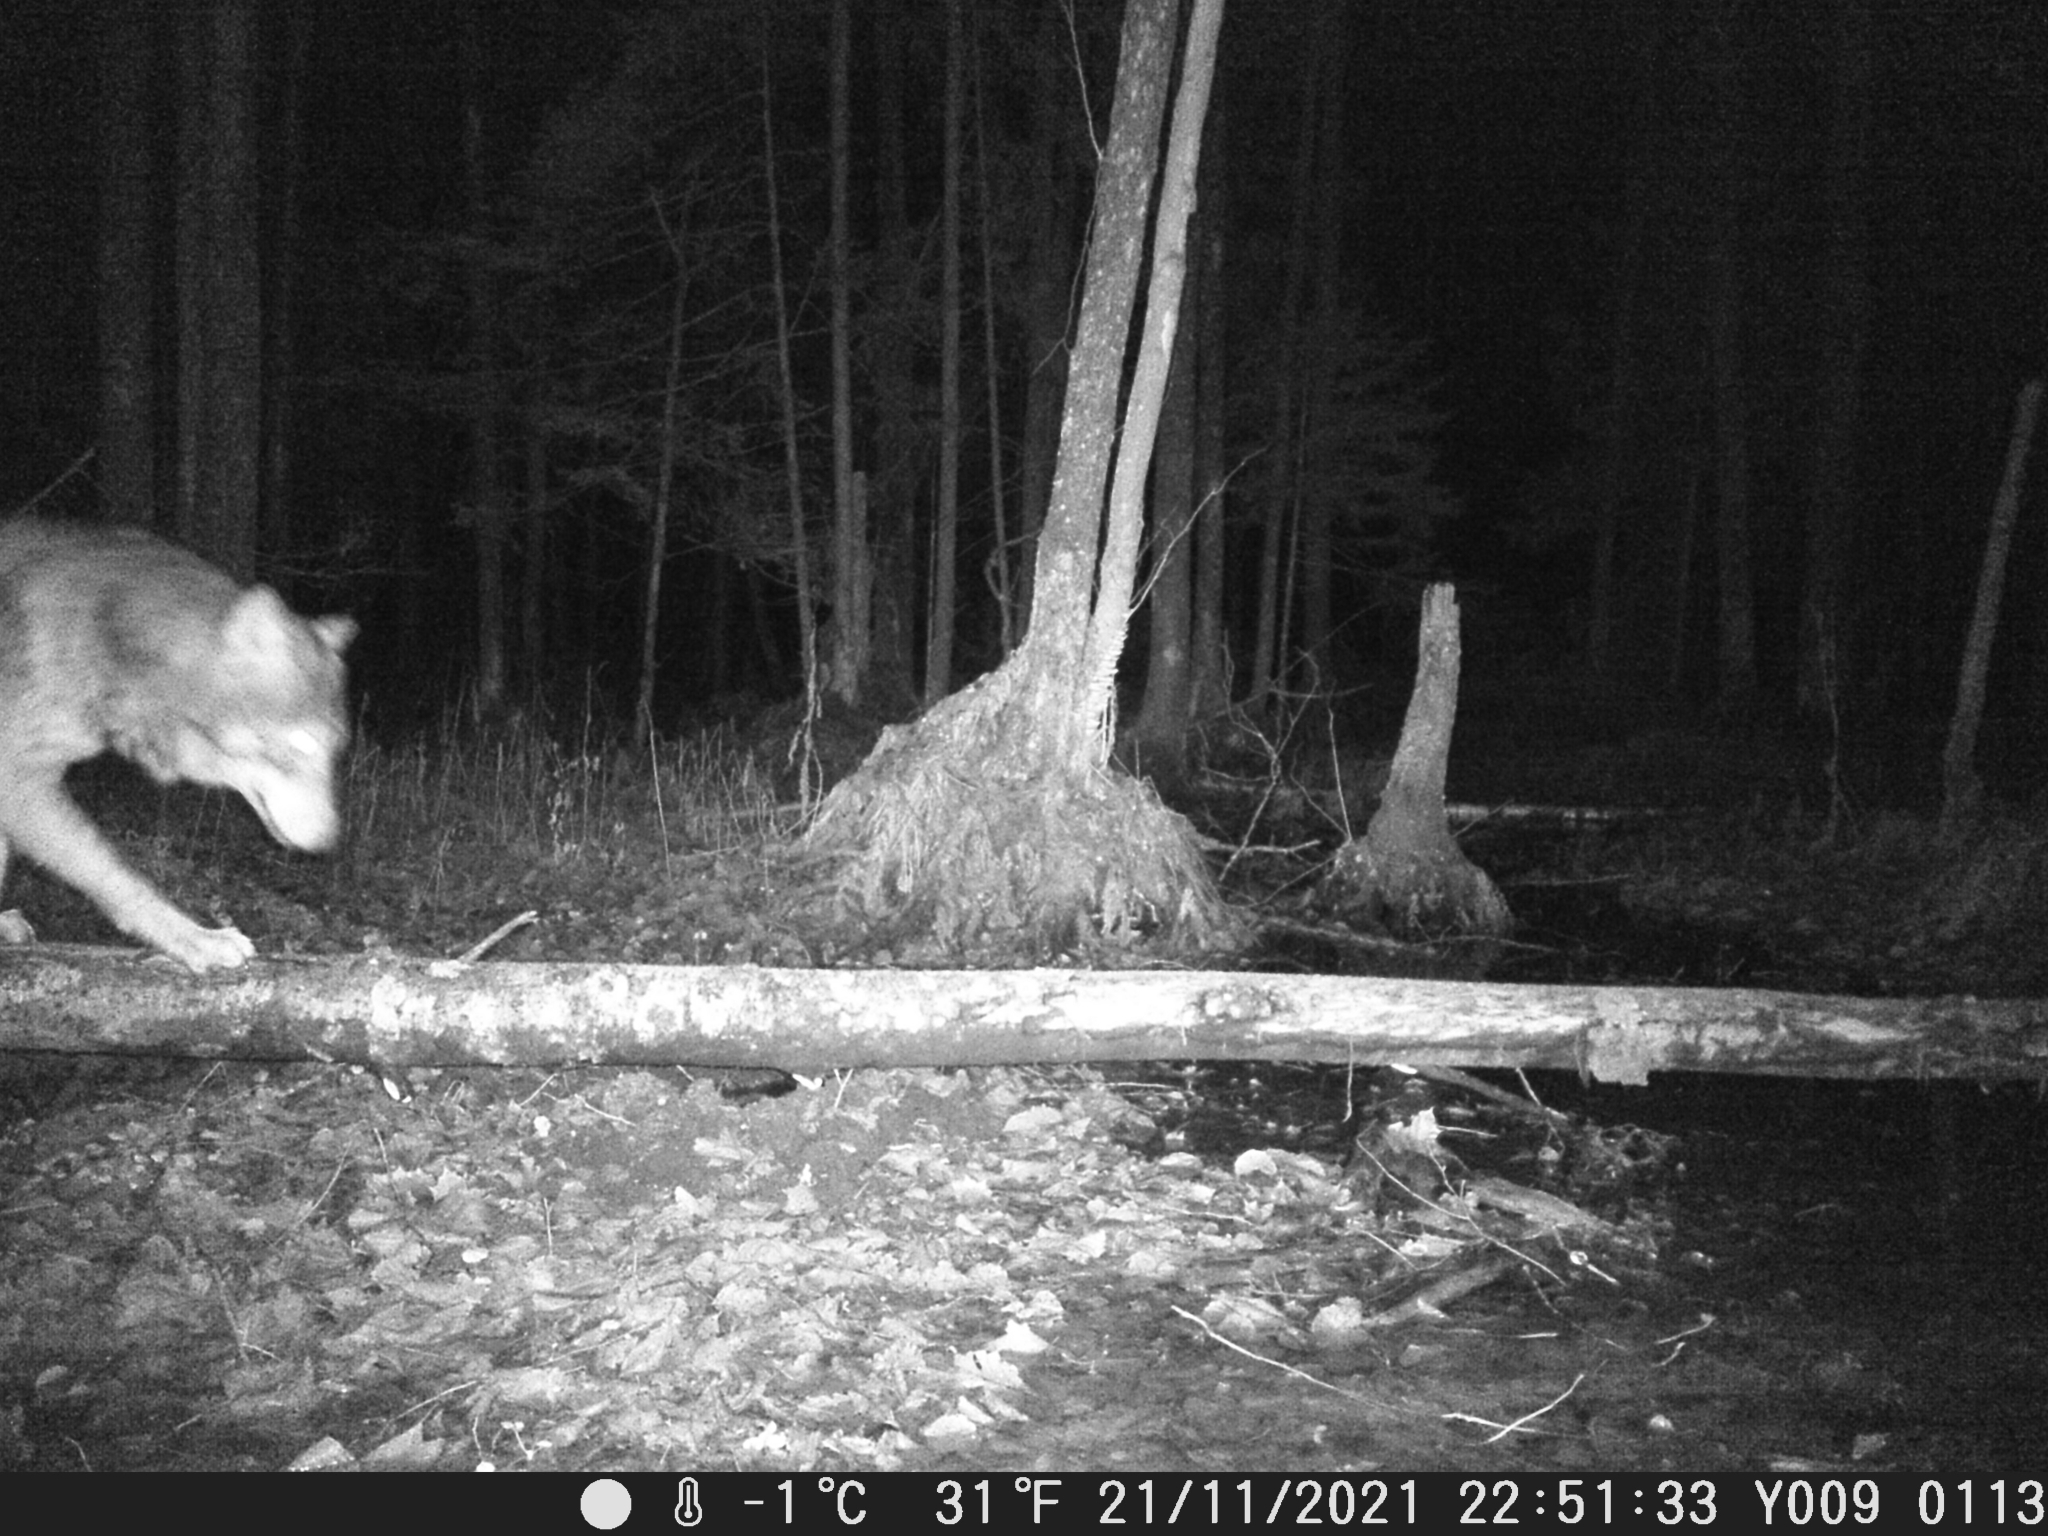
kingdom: Animalia
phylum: Chordata
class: Mammalia
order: Carnivora
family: Canidae
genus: Canis
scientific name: Canis lupus
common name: Gray wolf
